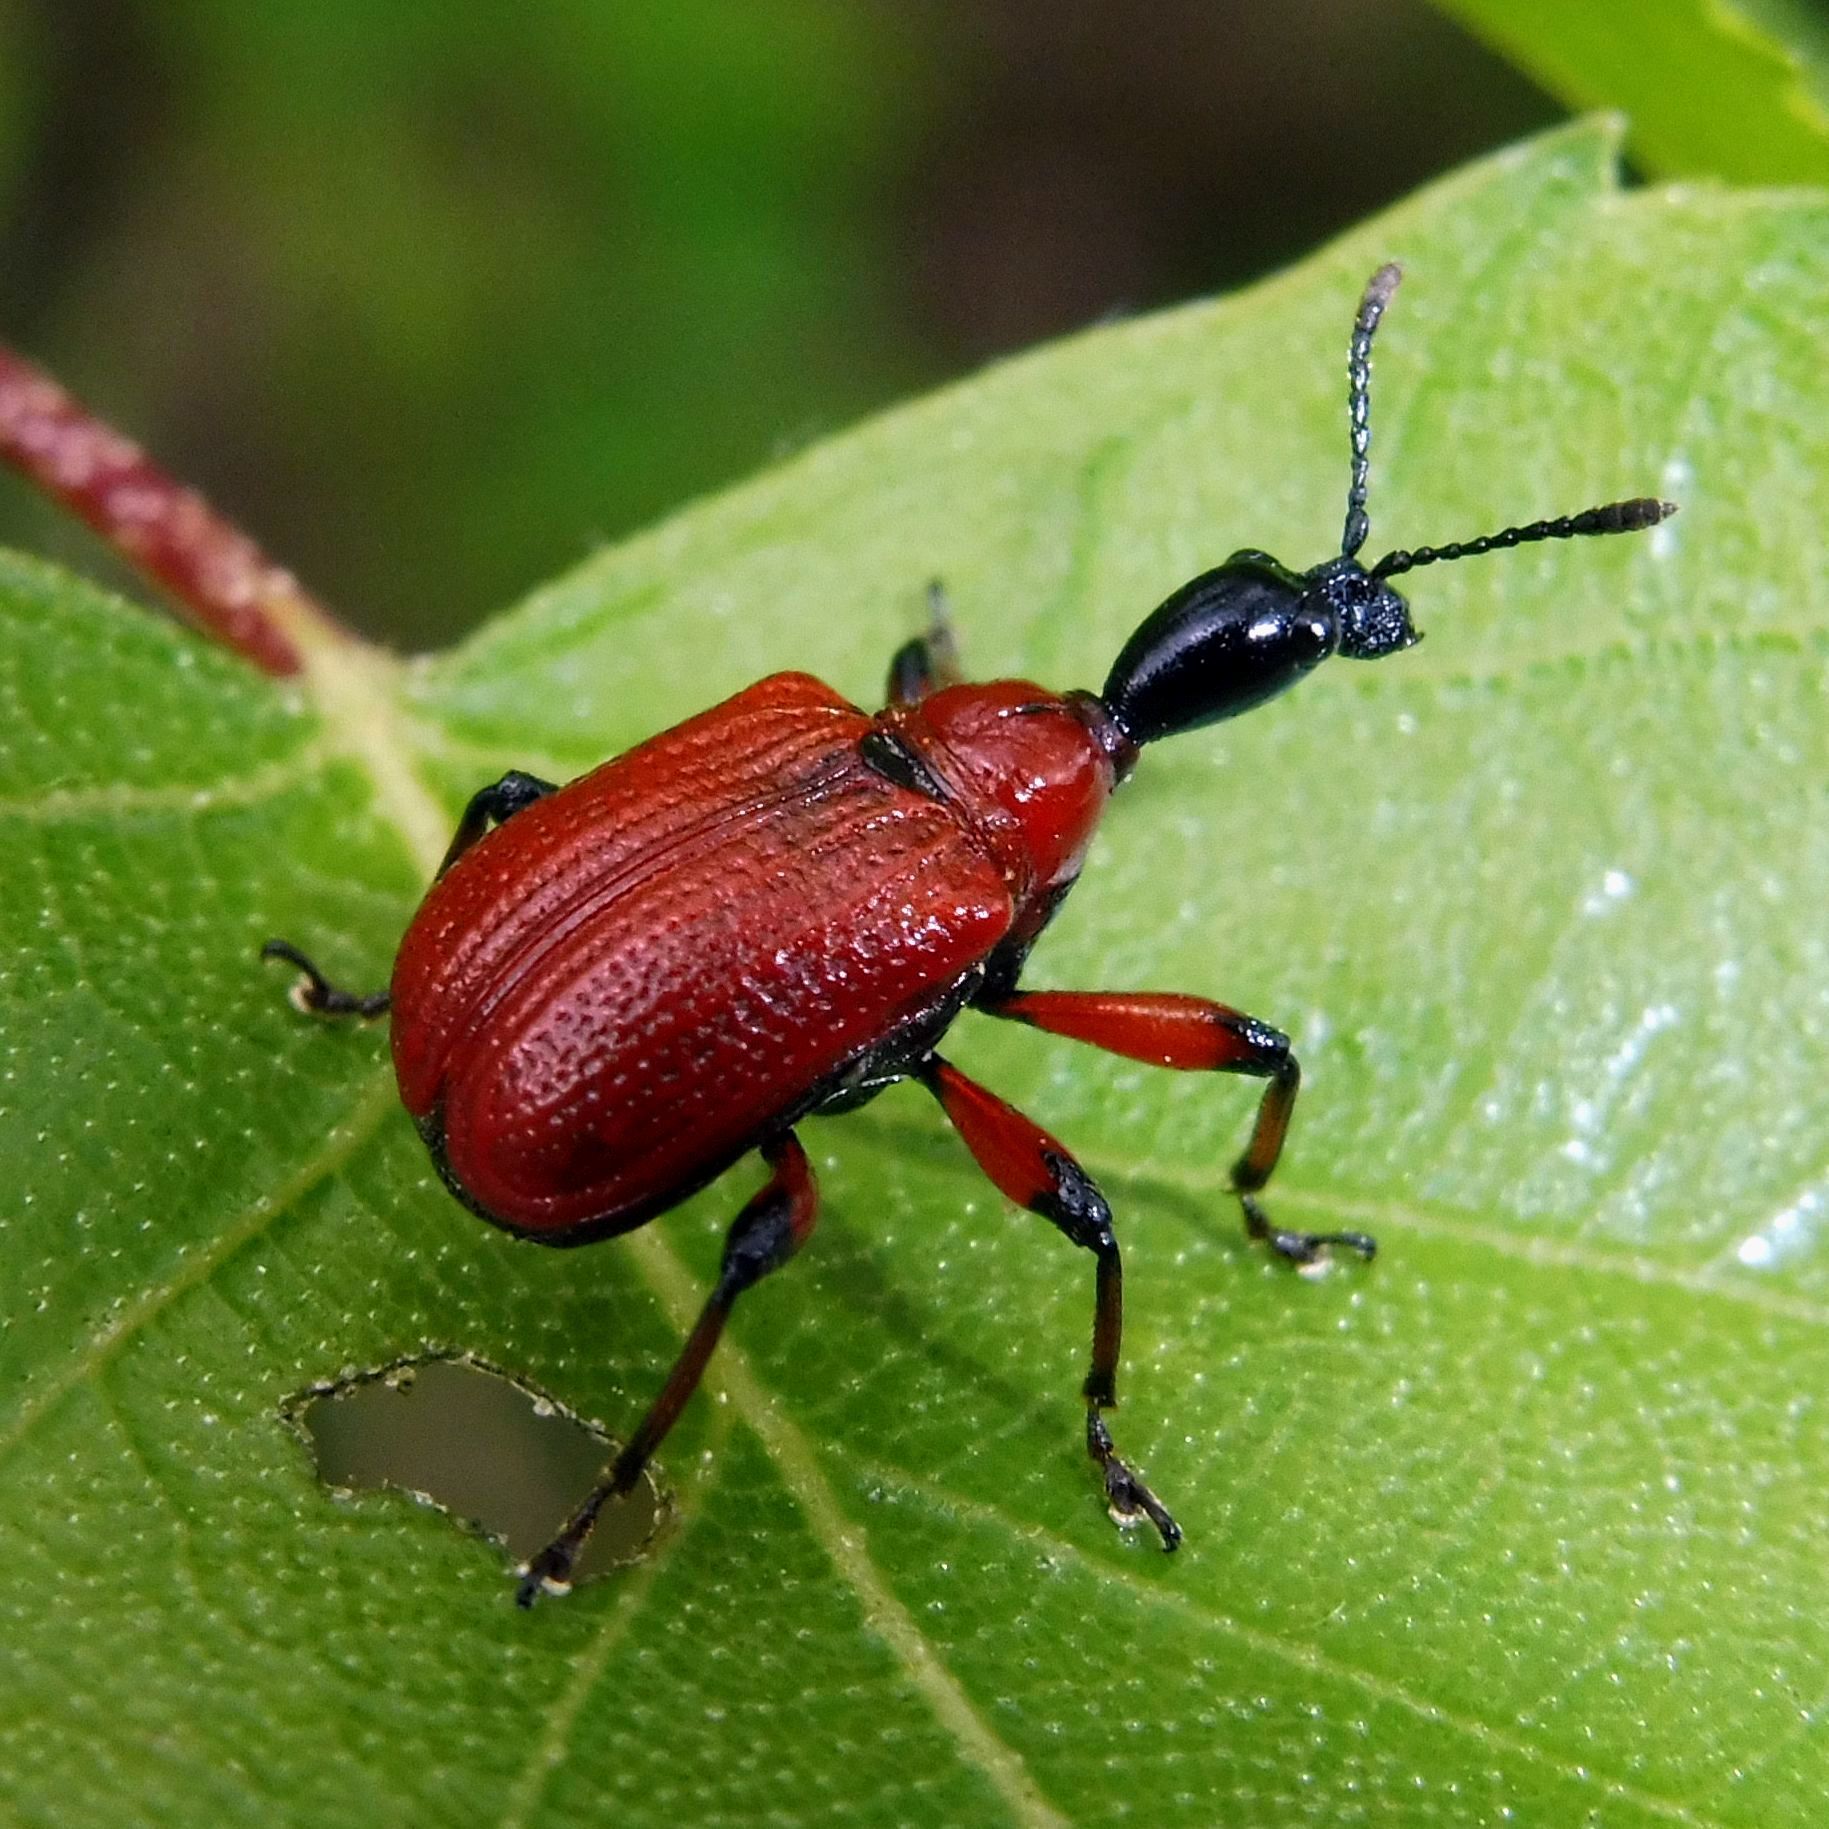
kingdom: Animalia
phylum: Arthropoda
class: Insecta
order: Coleoptera
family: Attelabidae
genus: Apoderus
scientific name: Apoderus coryli
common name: Hazel leaf roller
